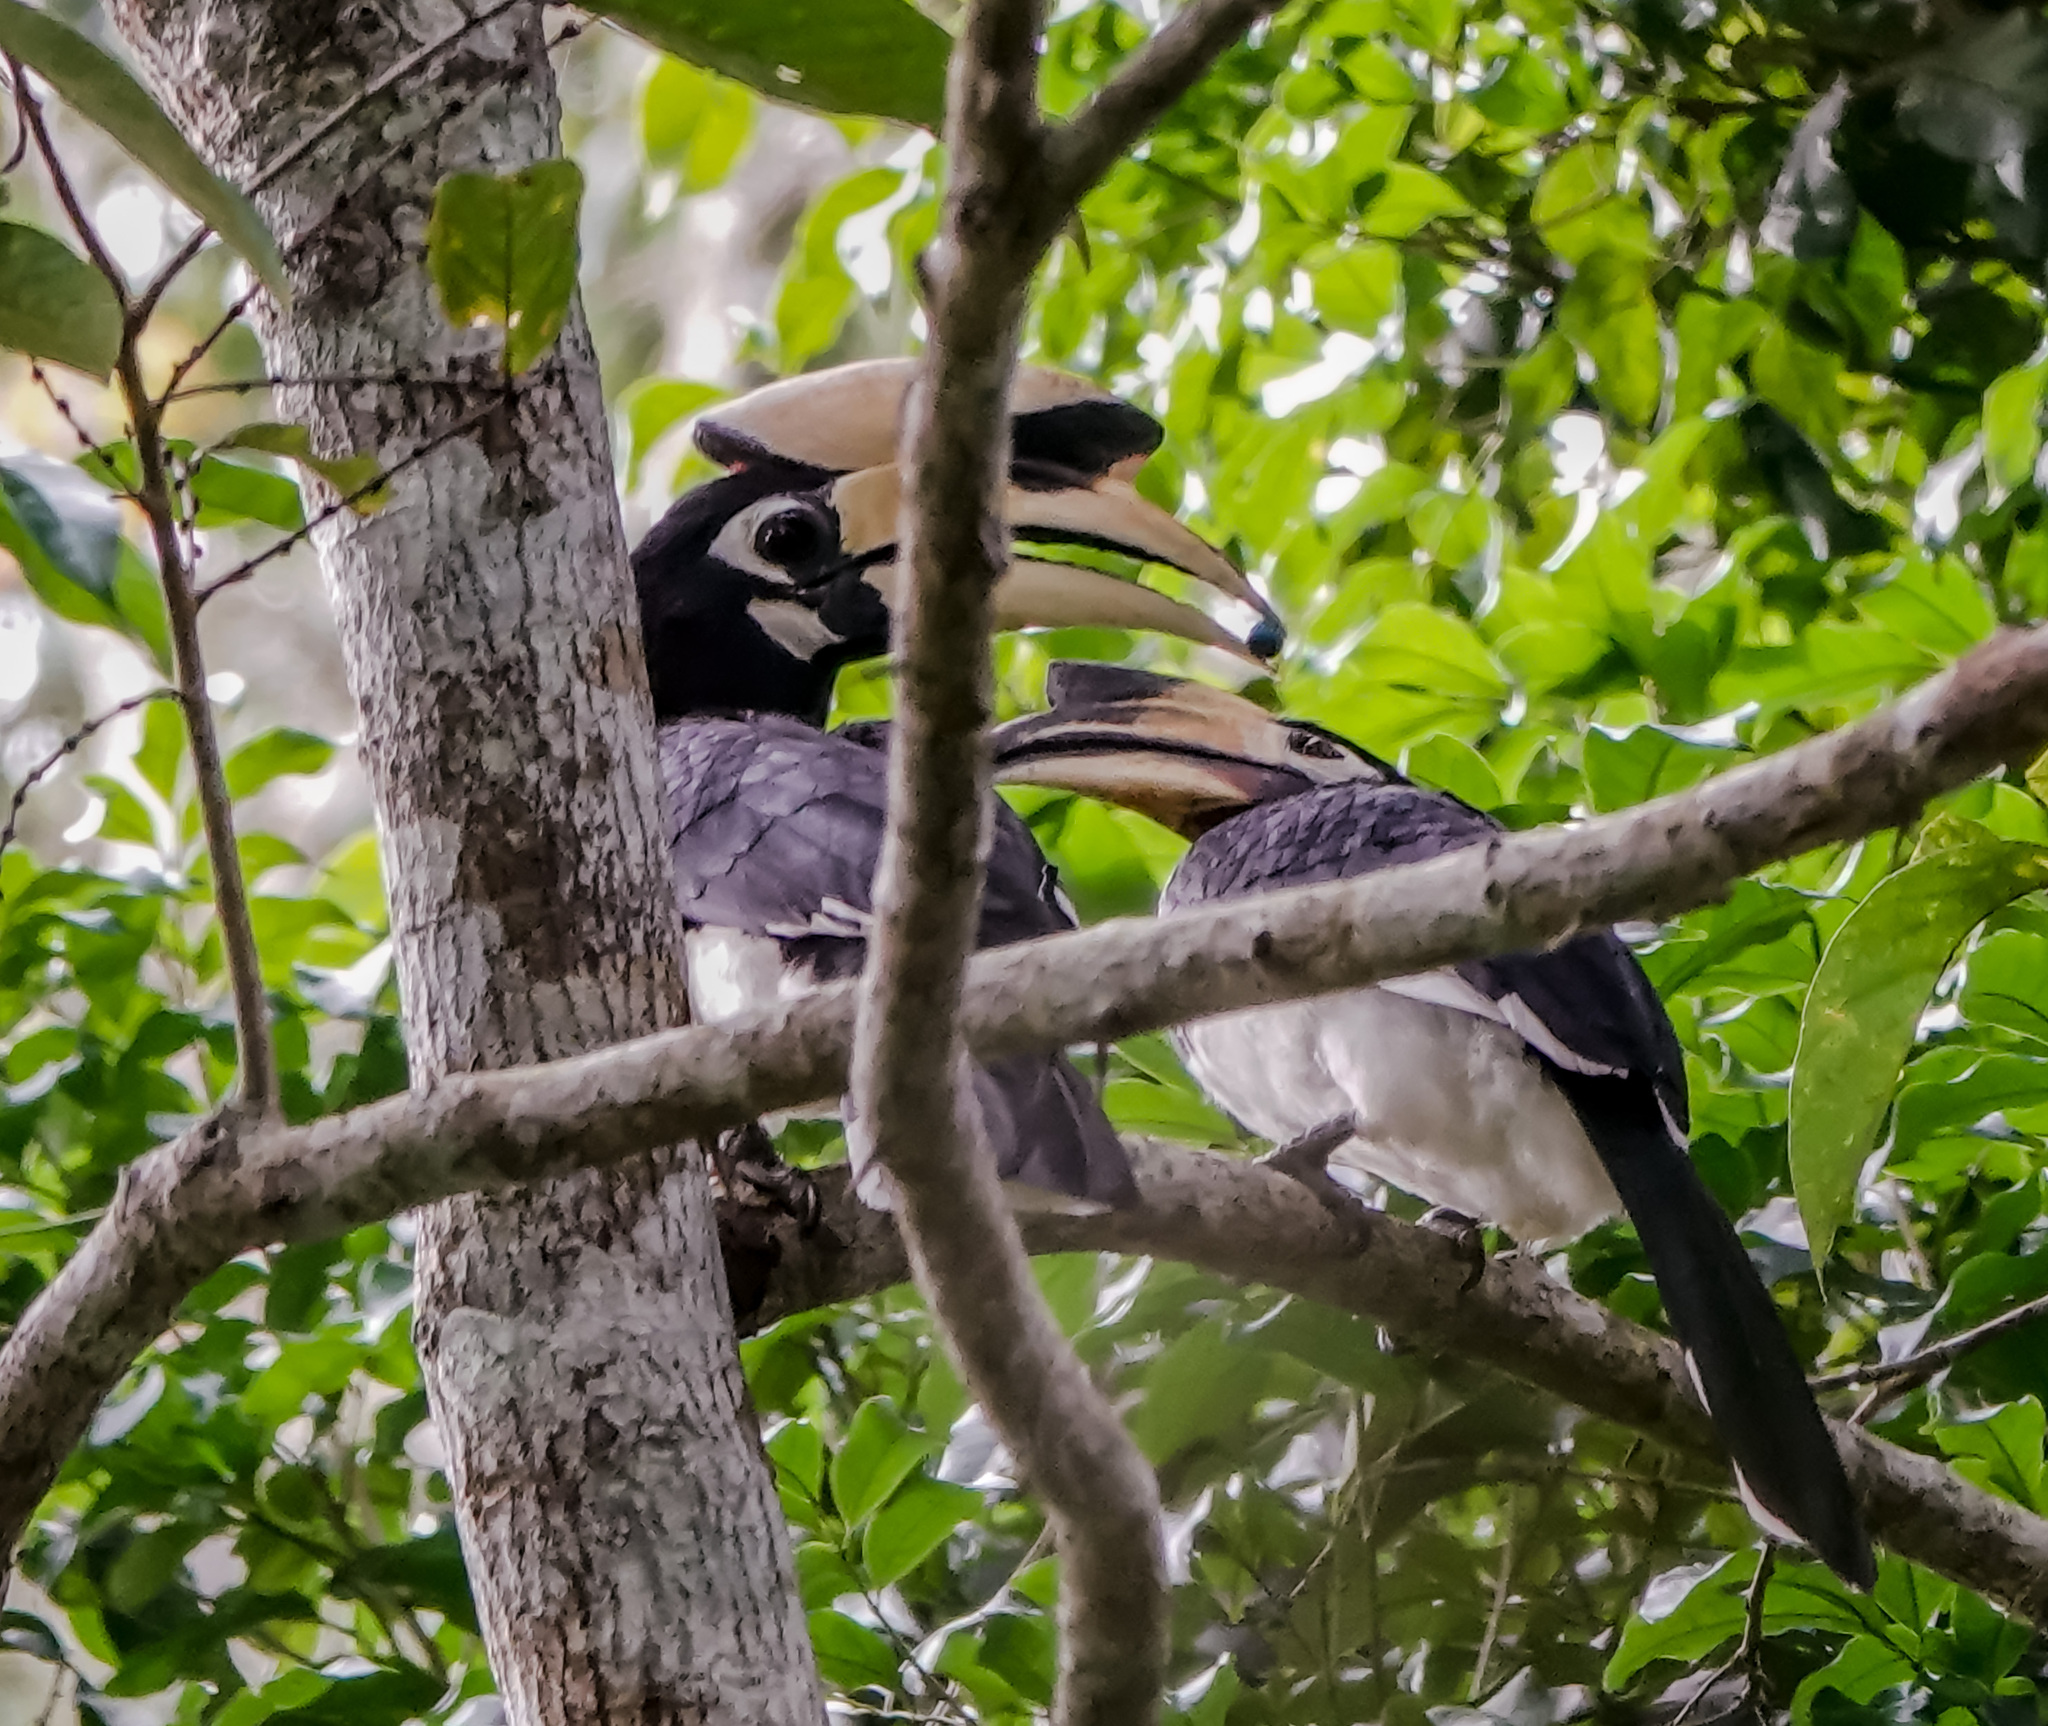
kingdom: Animalia
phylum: Chordata
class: Aves
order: Bucerotiformes
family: Bucerotidae
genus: Anthracoceros
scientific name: Anthracoceros albirostris
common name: Oriental pied-hornbill
